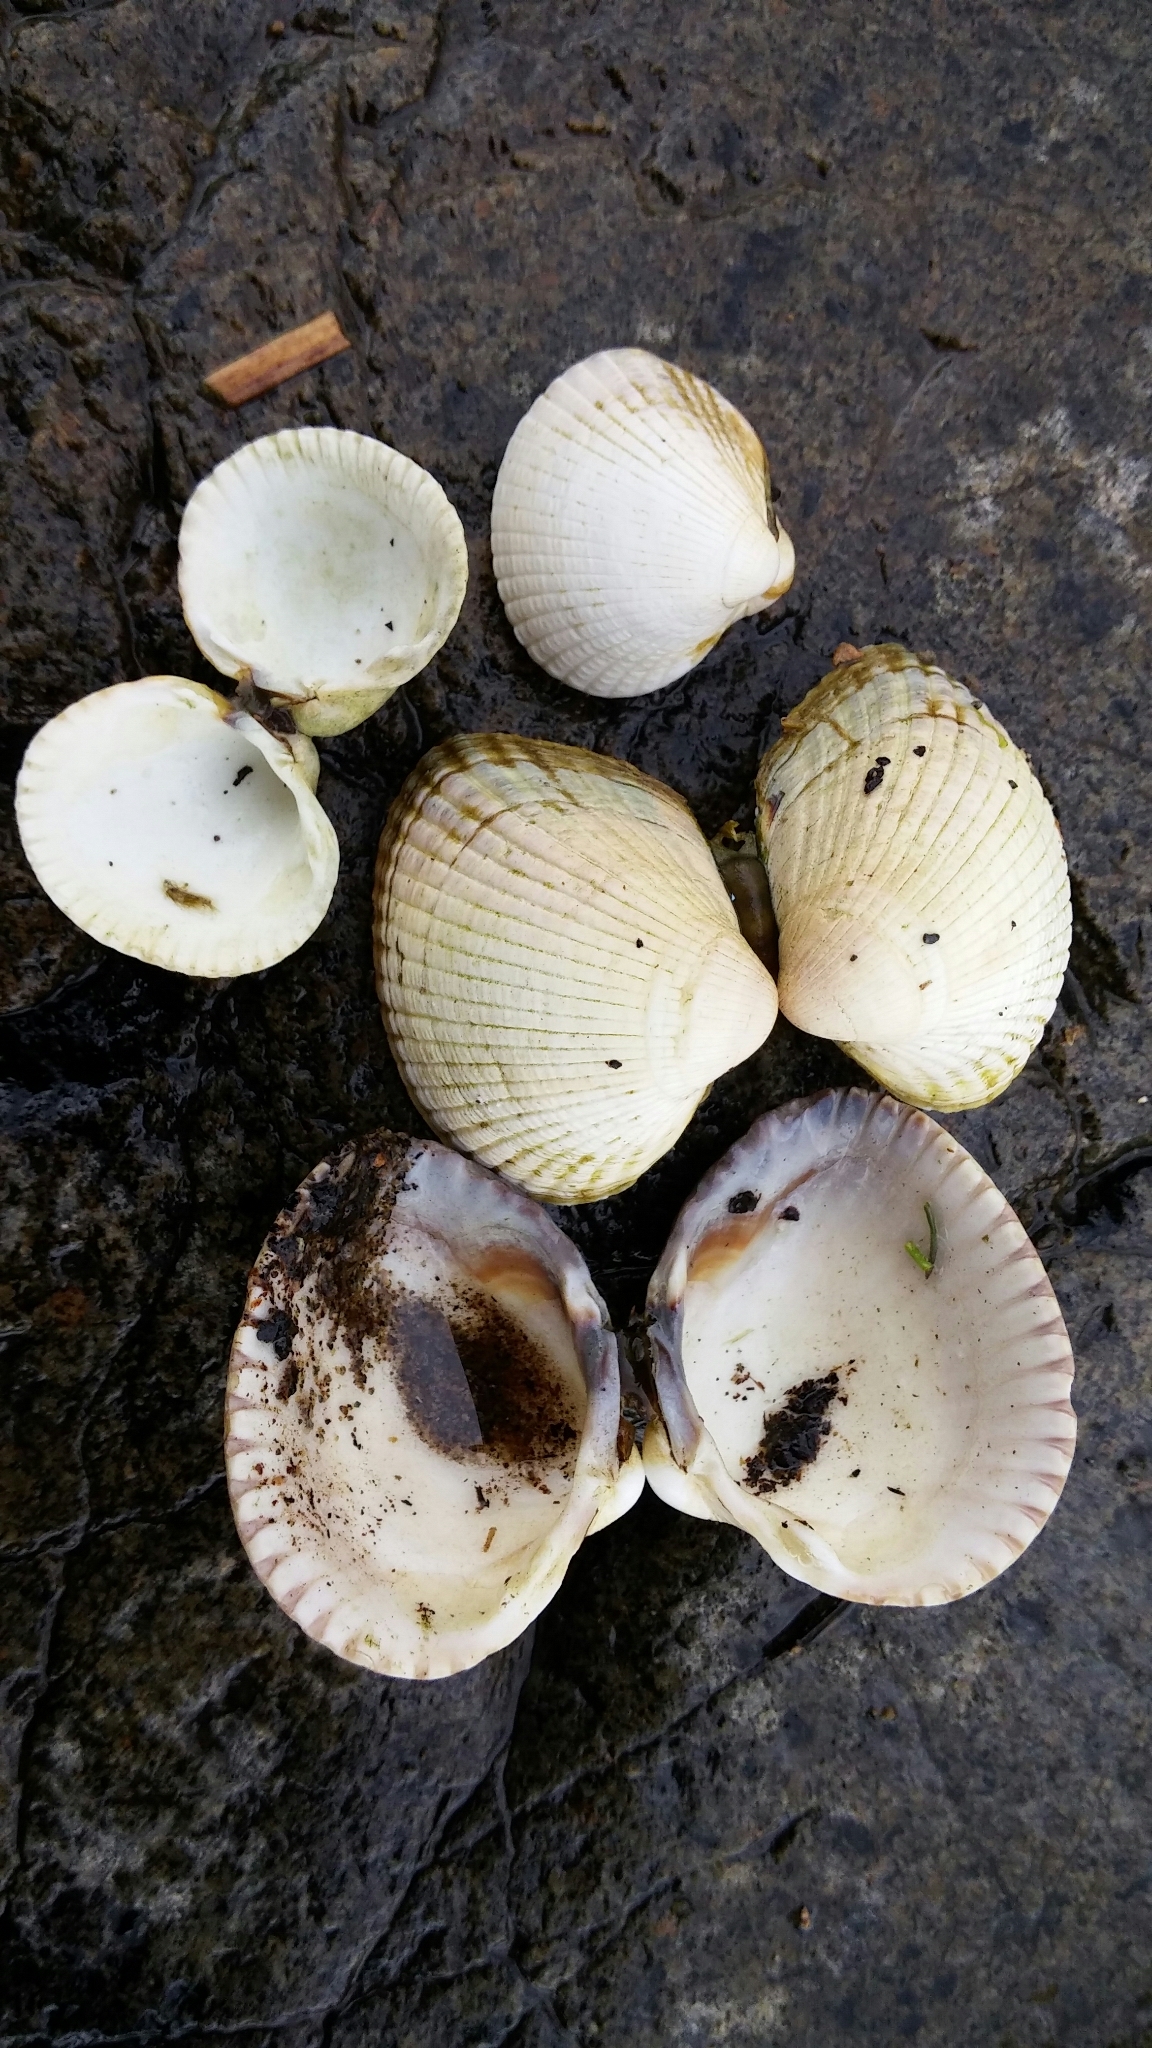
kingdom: Animalia
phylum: Mollusca
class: Bivalvia
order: Cardiida
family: Cardiidae
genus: Cerastoderma
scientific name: Cerastoderma edule
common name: Common cockle
